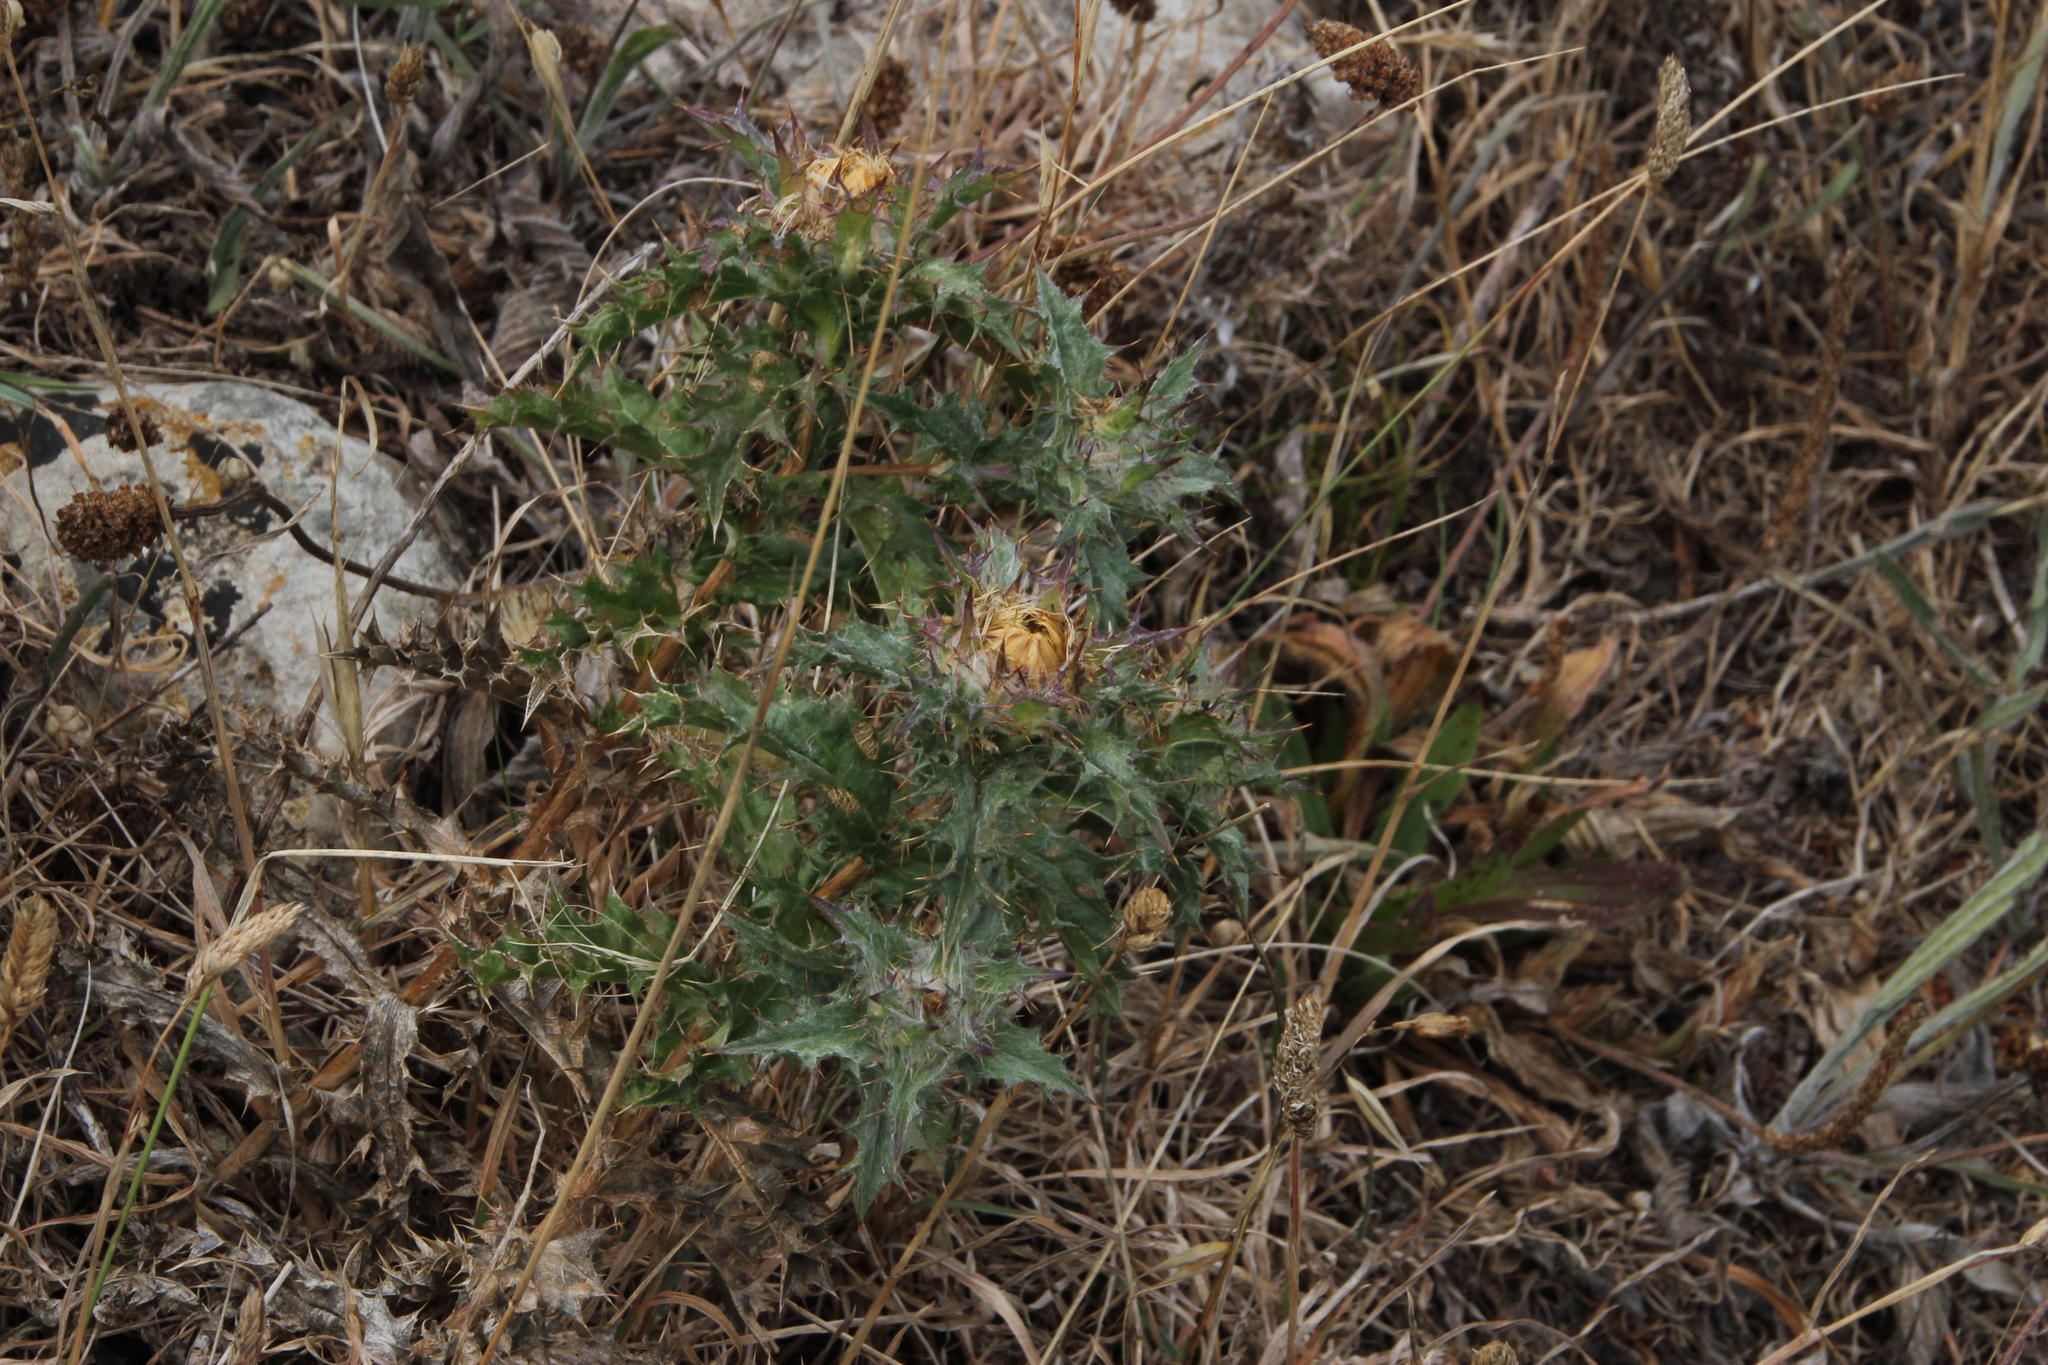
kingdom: Plantae
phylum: Tracheophyta
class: Magnoliopsida
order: Asterales
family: Asteraceae
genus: Carlina
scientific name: Carlina hispanica
